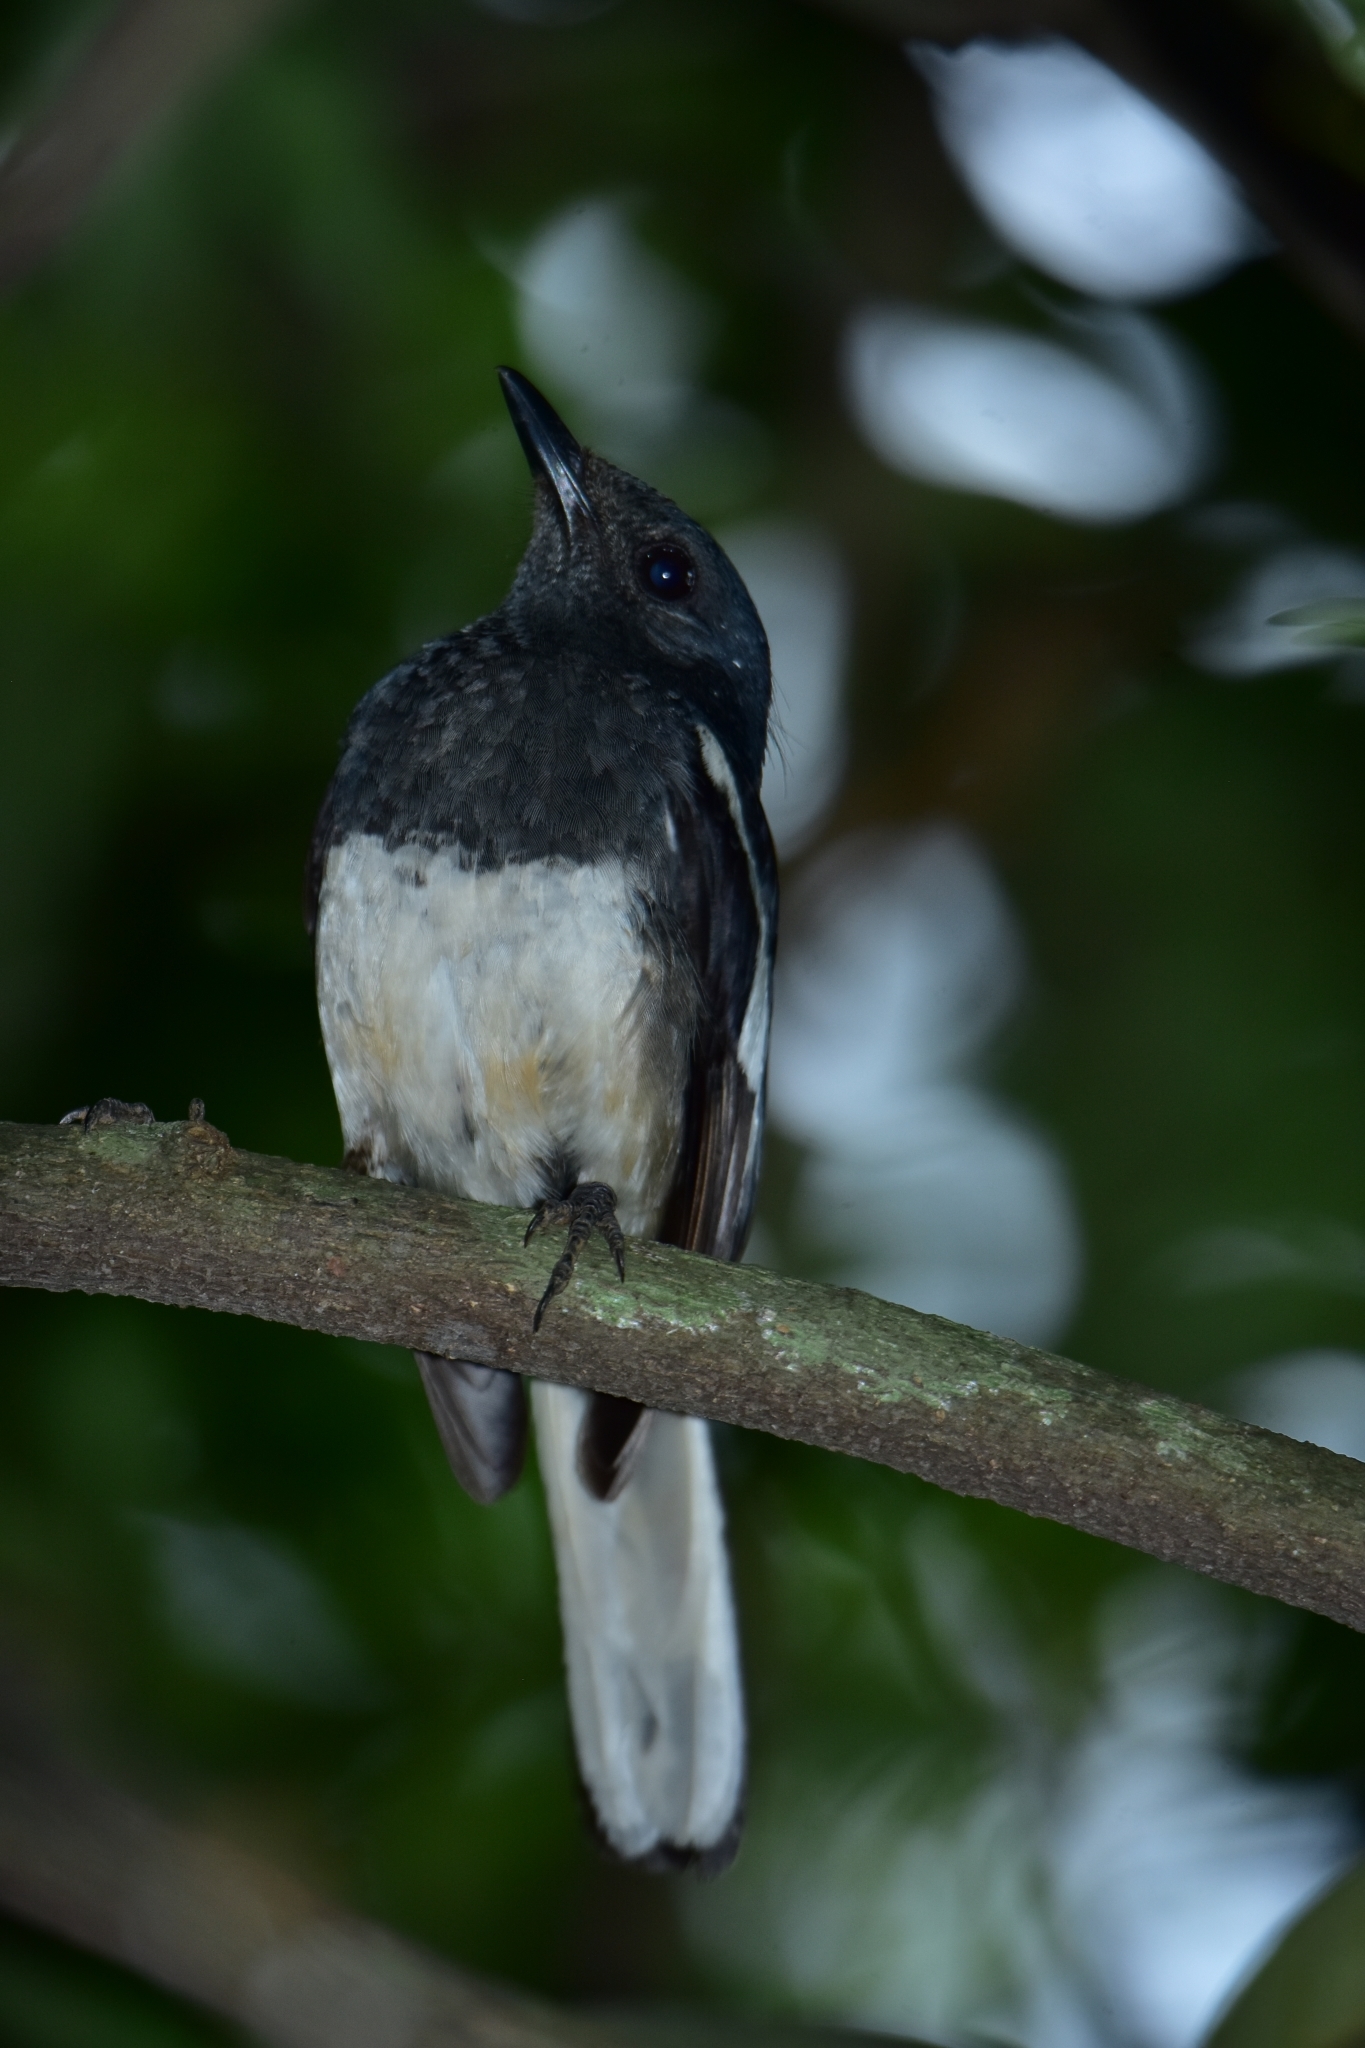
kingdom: Animalia
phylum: Chordata
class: Aves
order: Passeriformes
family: Muscicapidae
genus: Copsychus
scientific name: Copsychus saularis
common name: Oriental magpie-robin
